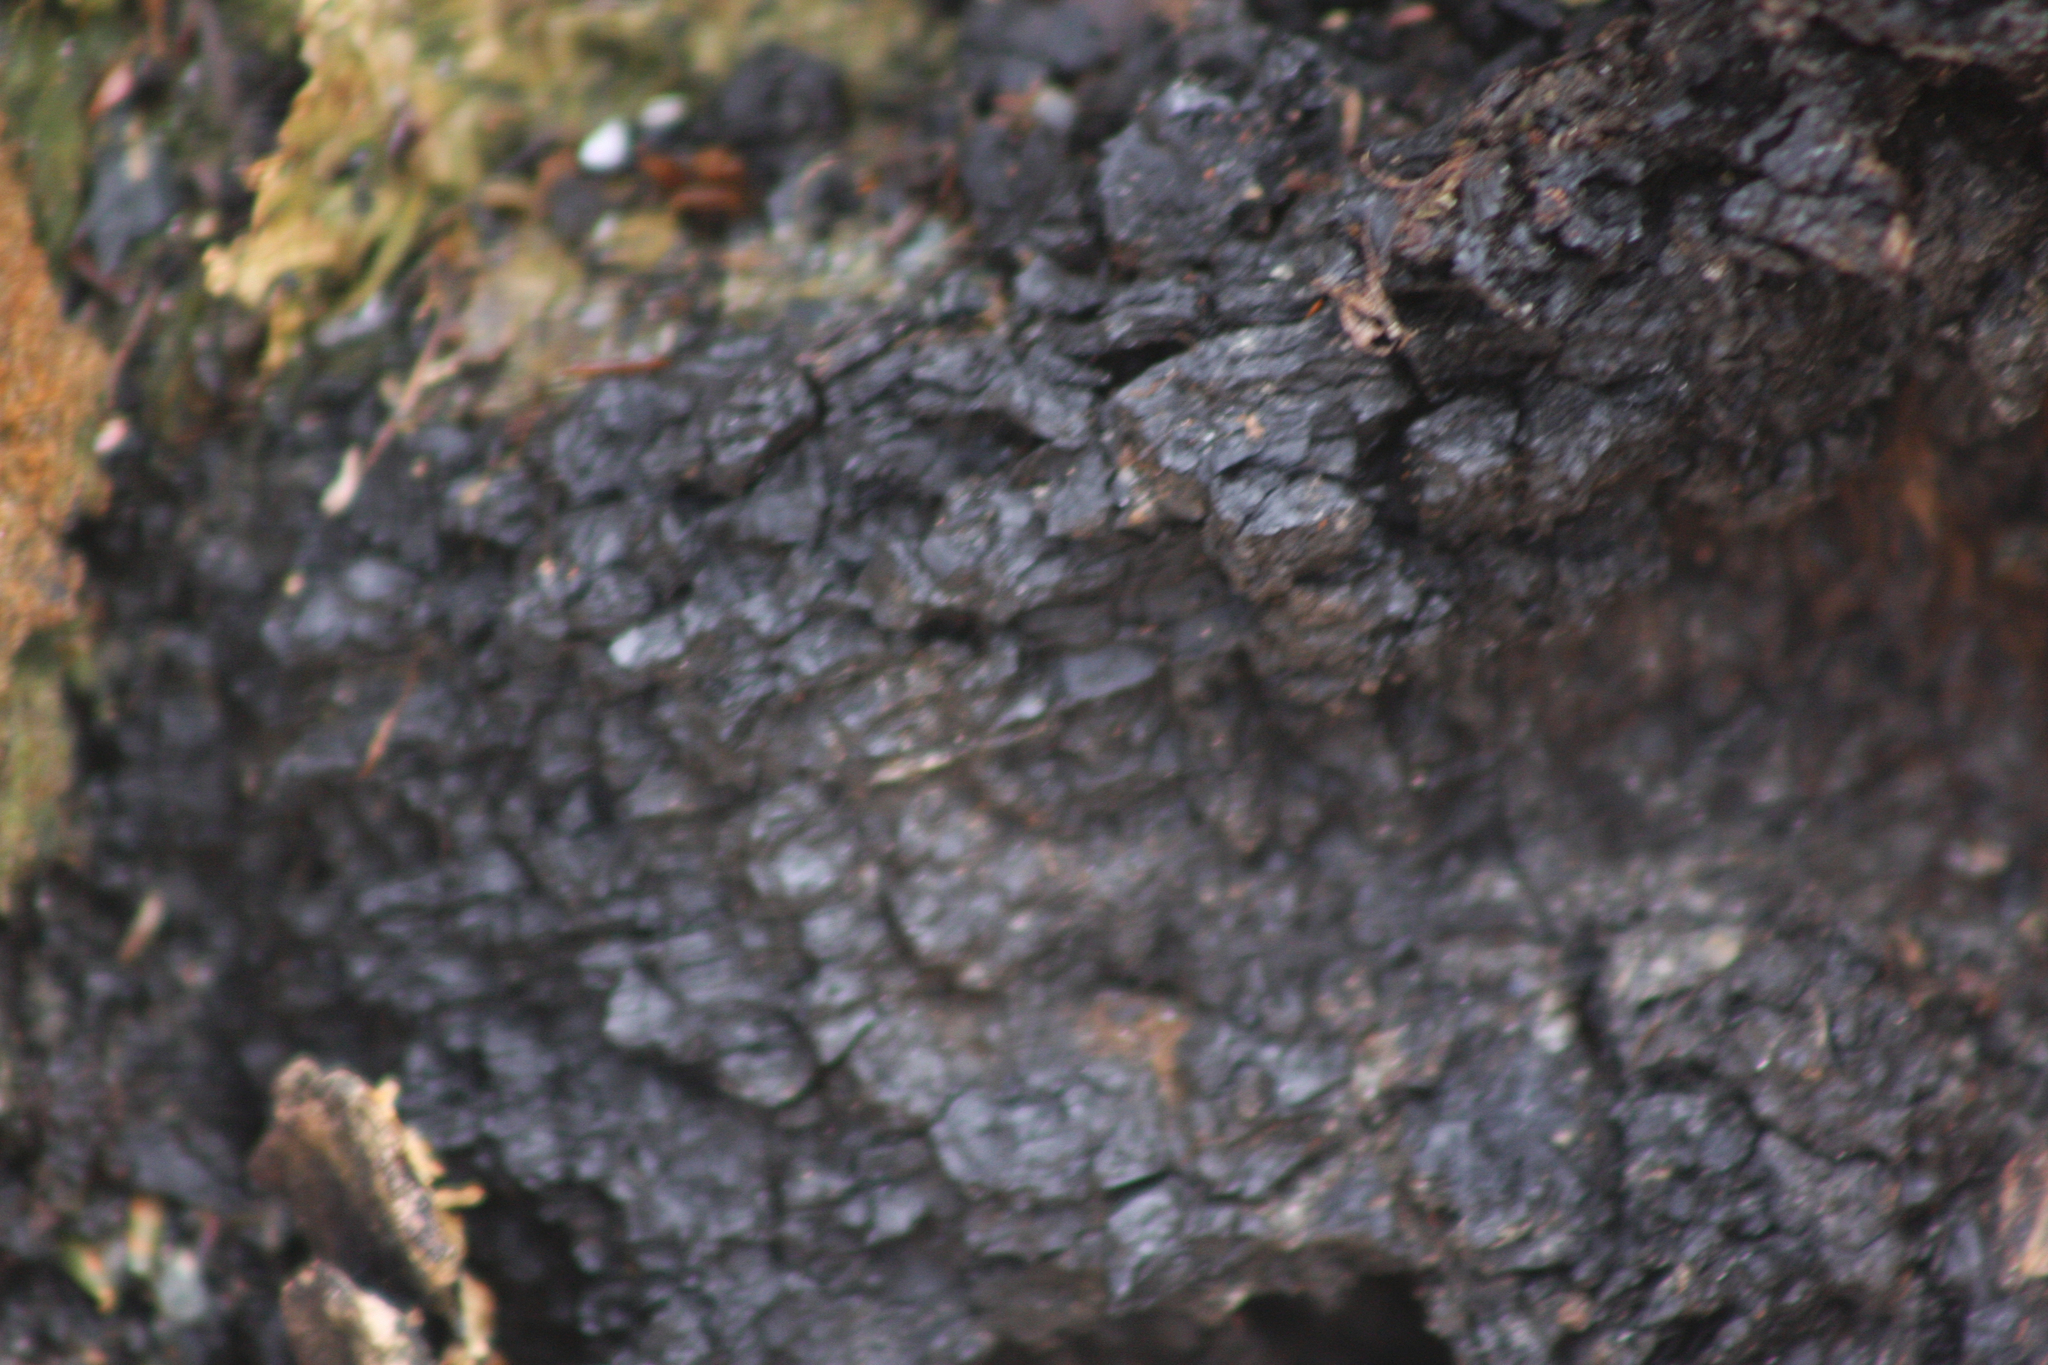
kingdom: Fungi
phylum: Basidiomycota
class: Agaricomycetes
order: Hymenochaetales
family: Hymenochaetaceae
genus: Inonotus
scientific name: Inonotus obliquus
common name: Chaga
